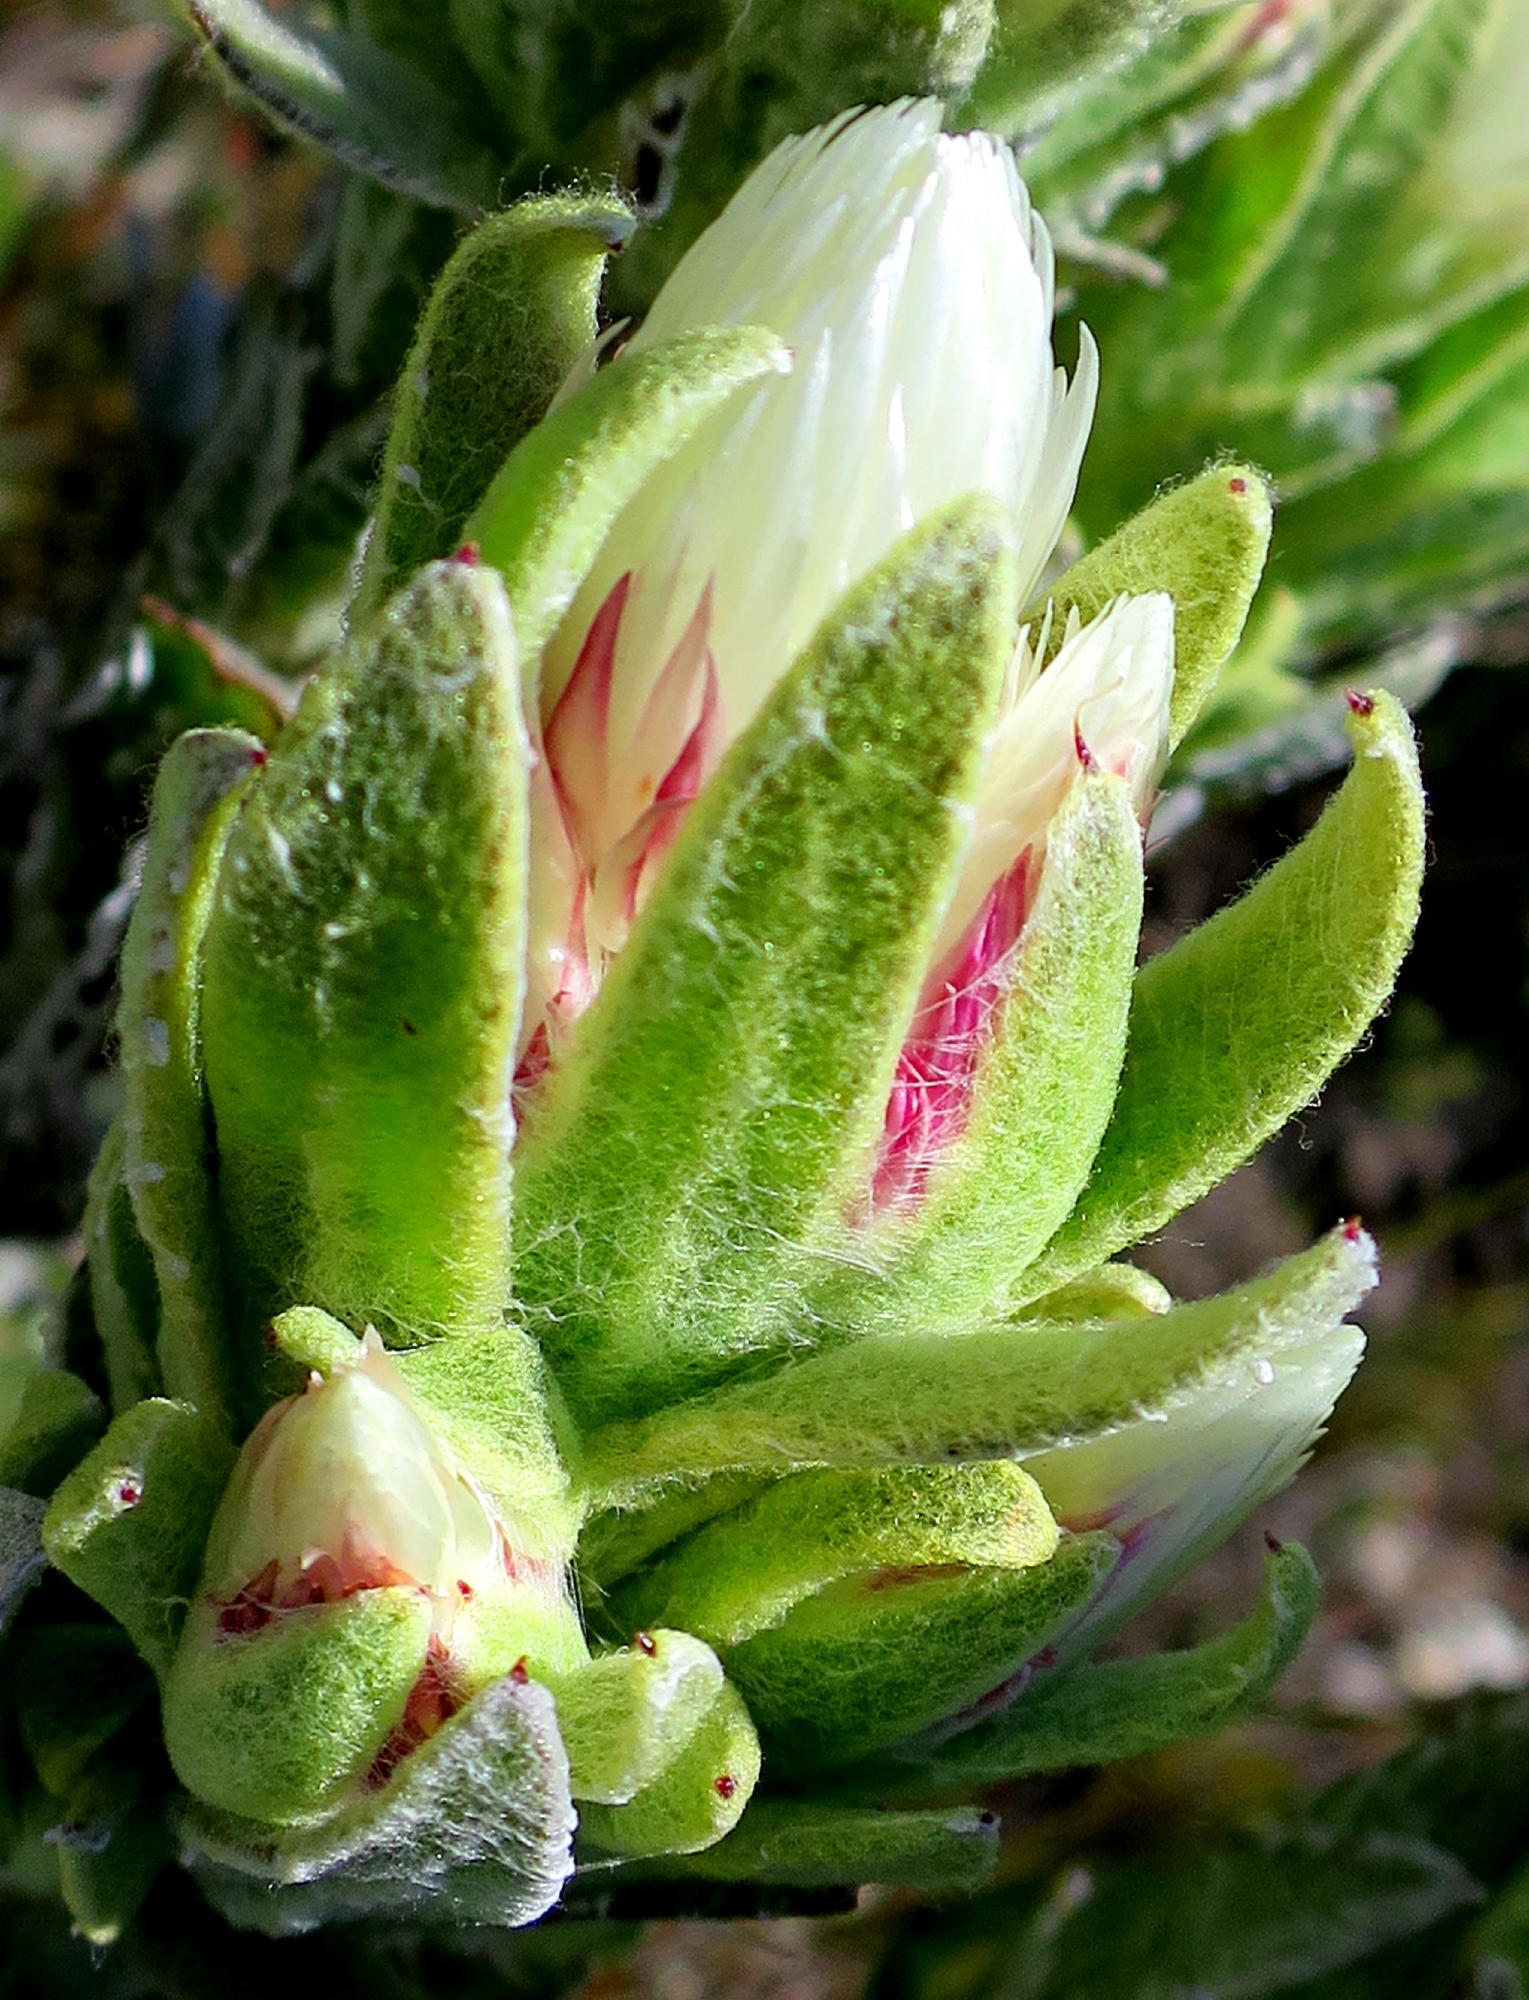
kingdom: Plantae
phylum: Tracheophyta
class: Magnoliopsida
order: Asterales
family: Asteraceae
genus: Syncarpha
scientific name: Syncarpha vestita
